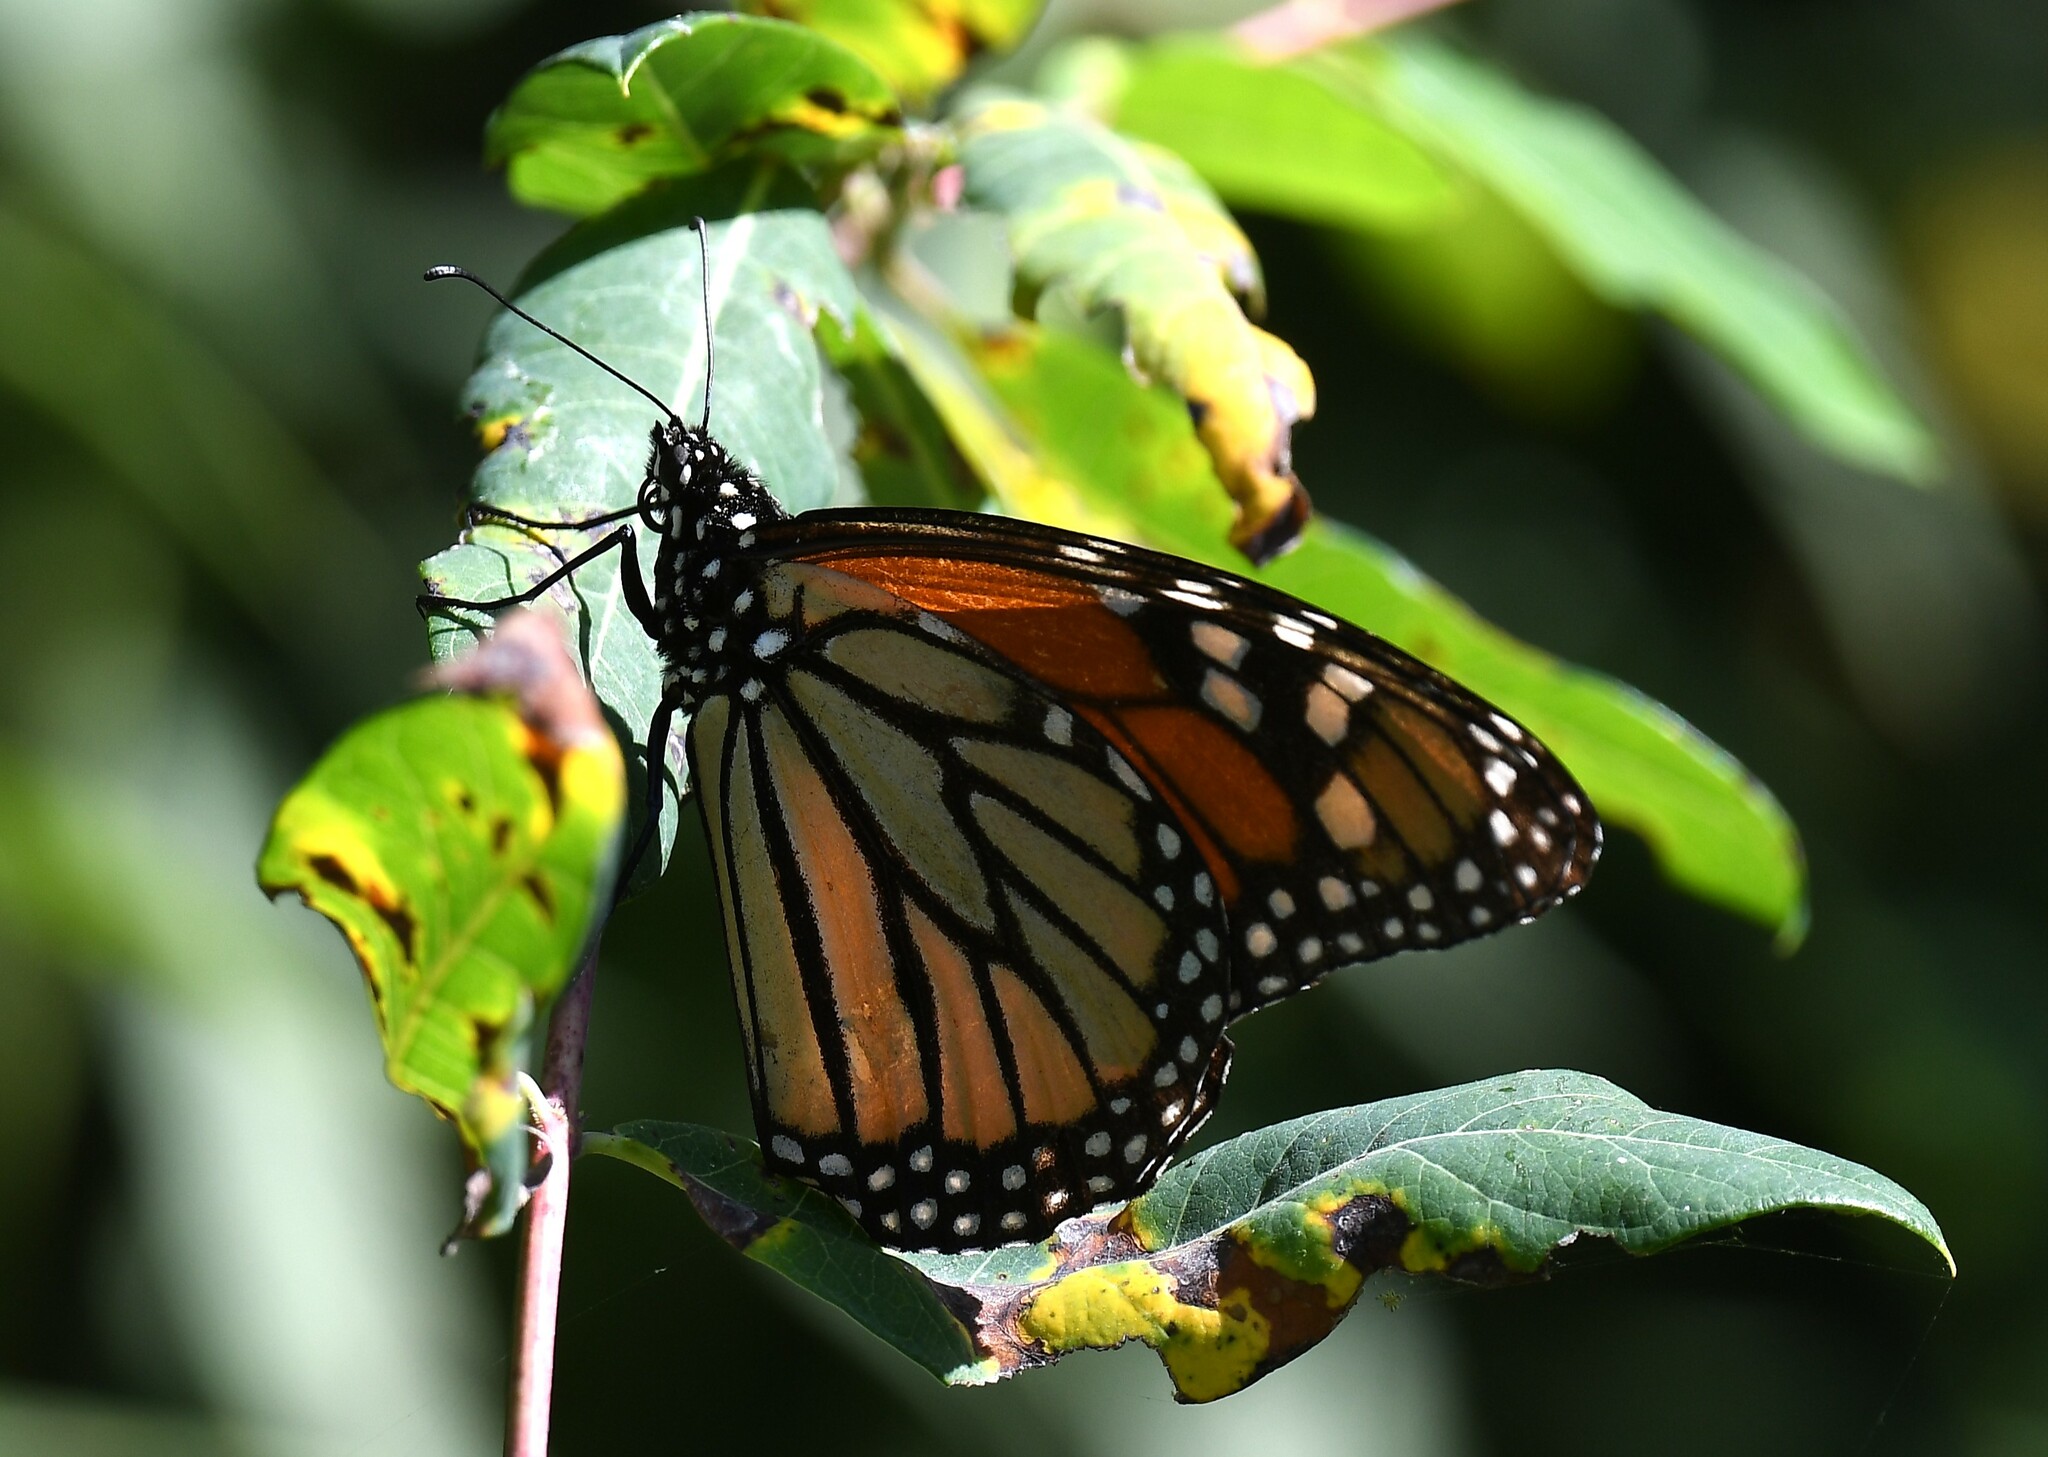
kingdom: Animalia
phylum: Arthropoda
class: Insecta
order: Lepidoptera
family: Nymphalidae
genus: Danaus
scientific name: Danaus plexippus
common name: Monarch
